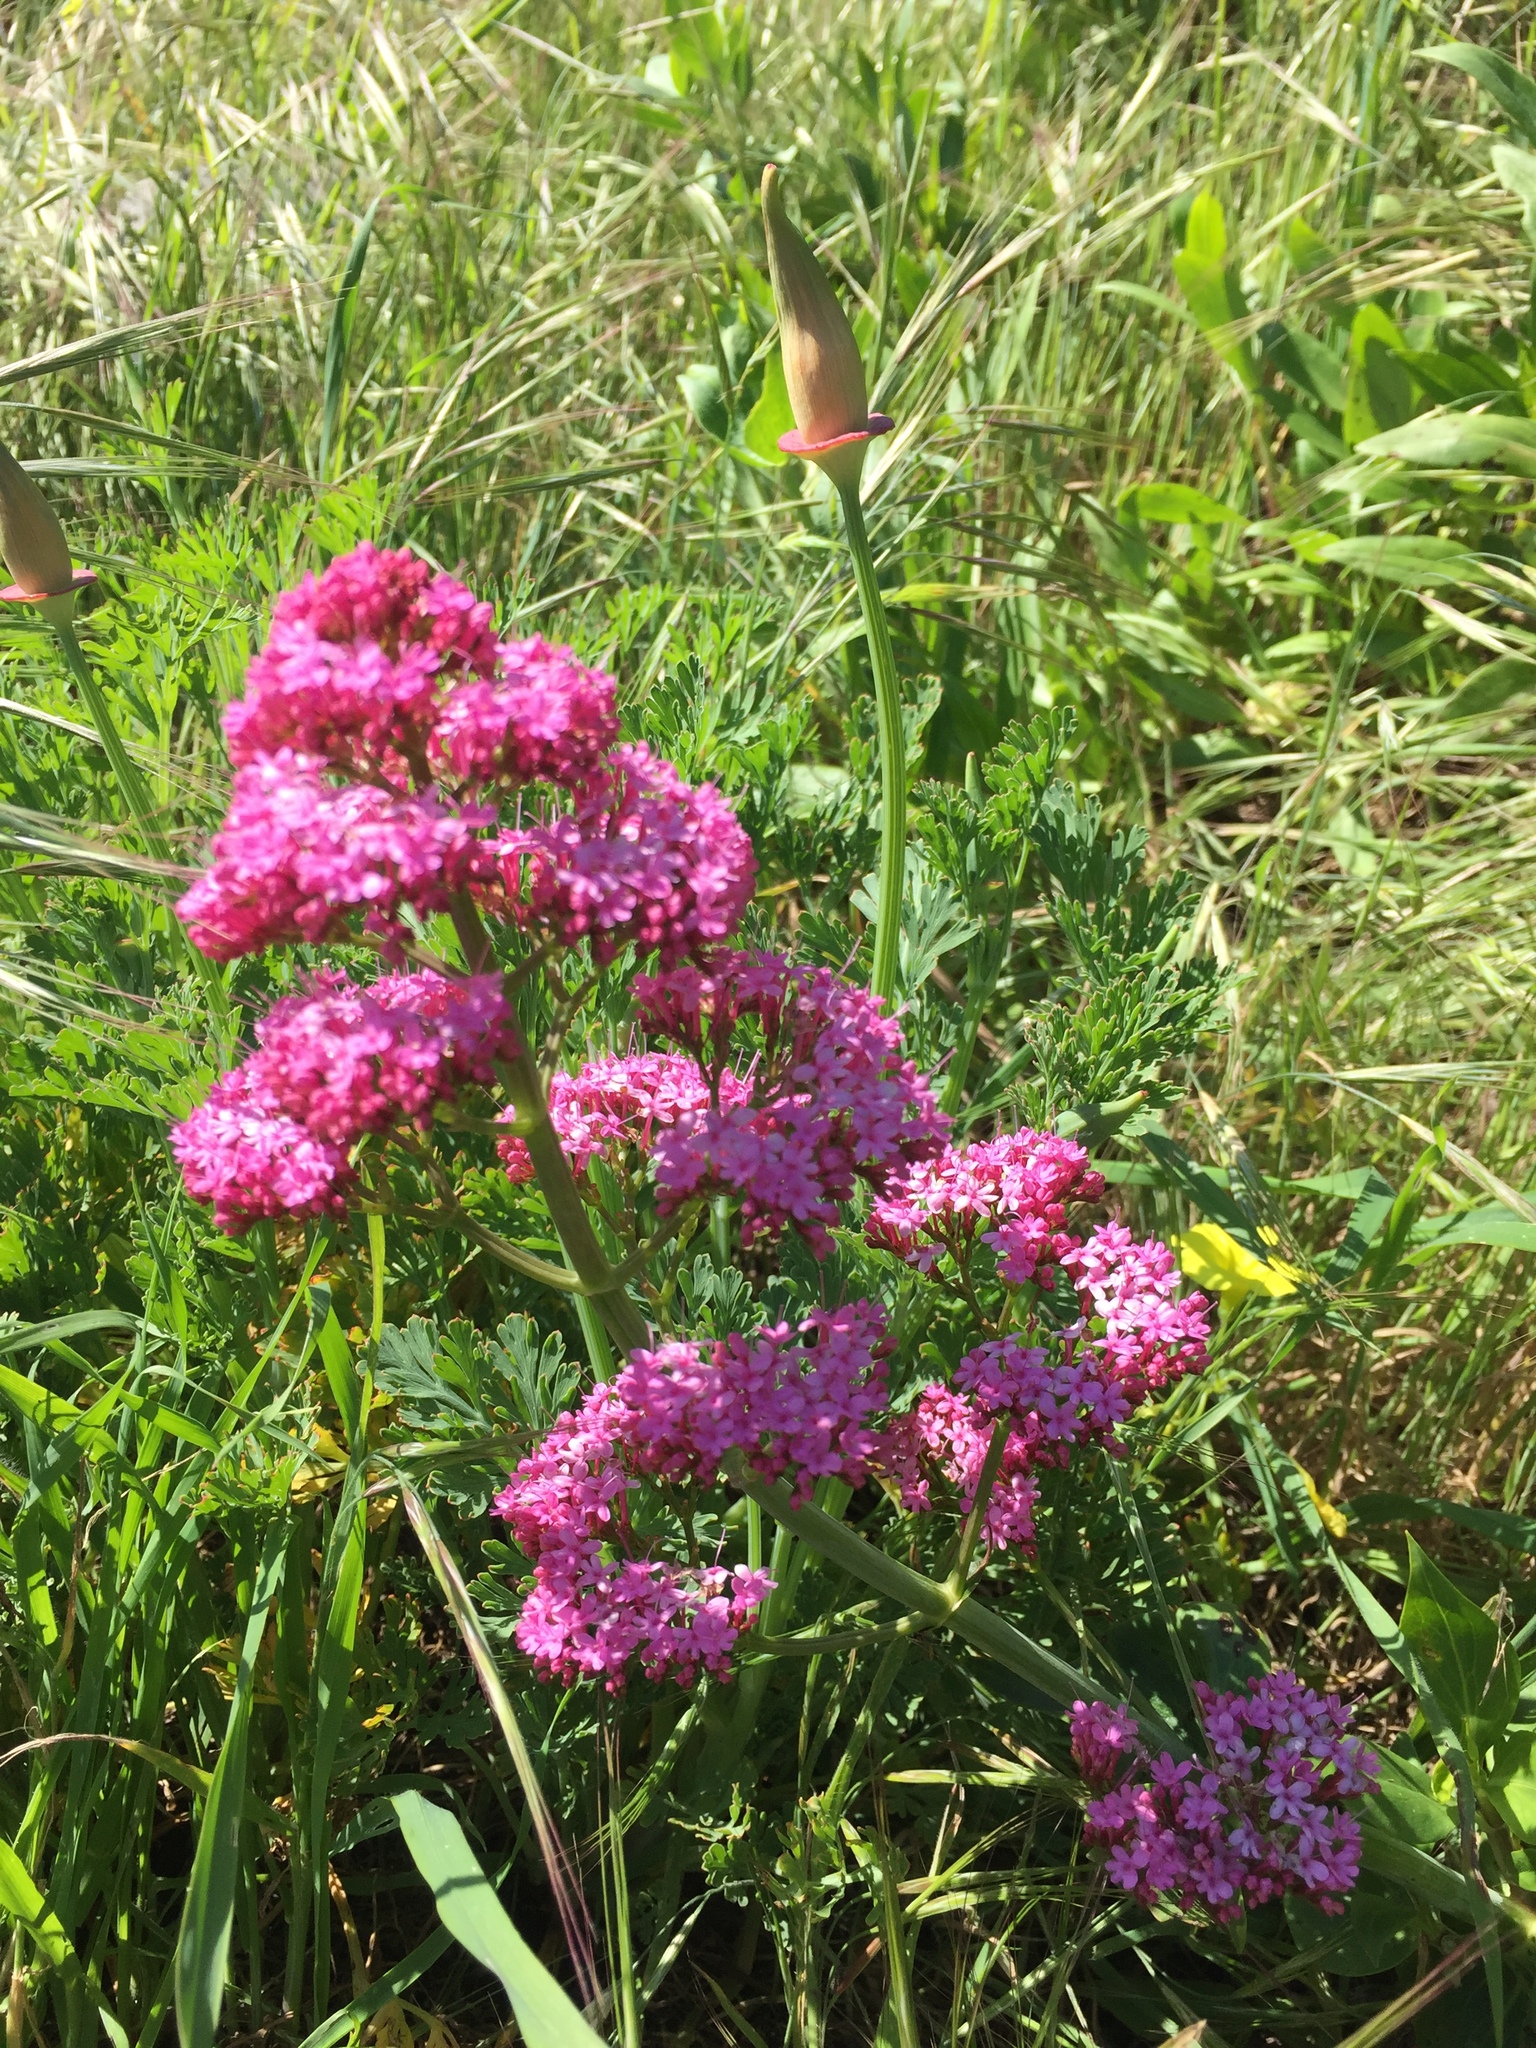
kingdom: Plantae
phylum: Tracheophyta
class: Magnoliopsida
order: Dipsacales
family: Caprifoliaceae
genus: Centranthus
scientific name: Centranthus ruber
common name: Red valerian
